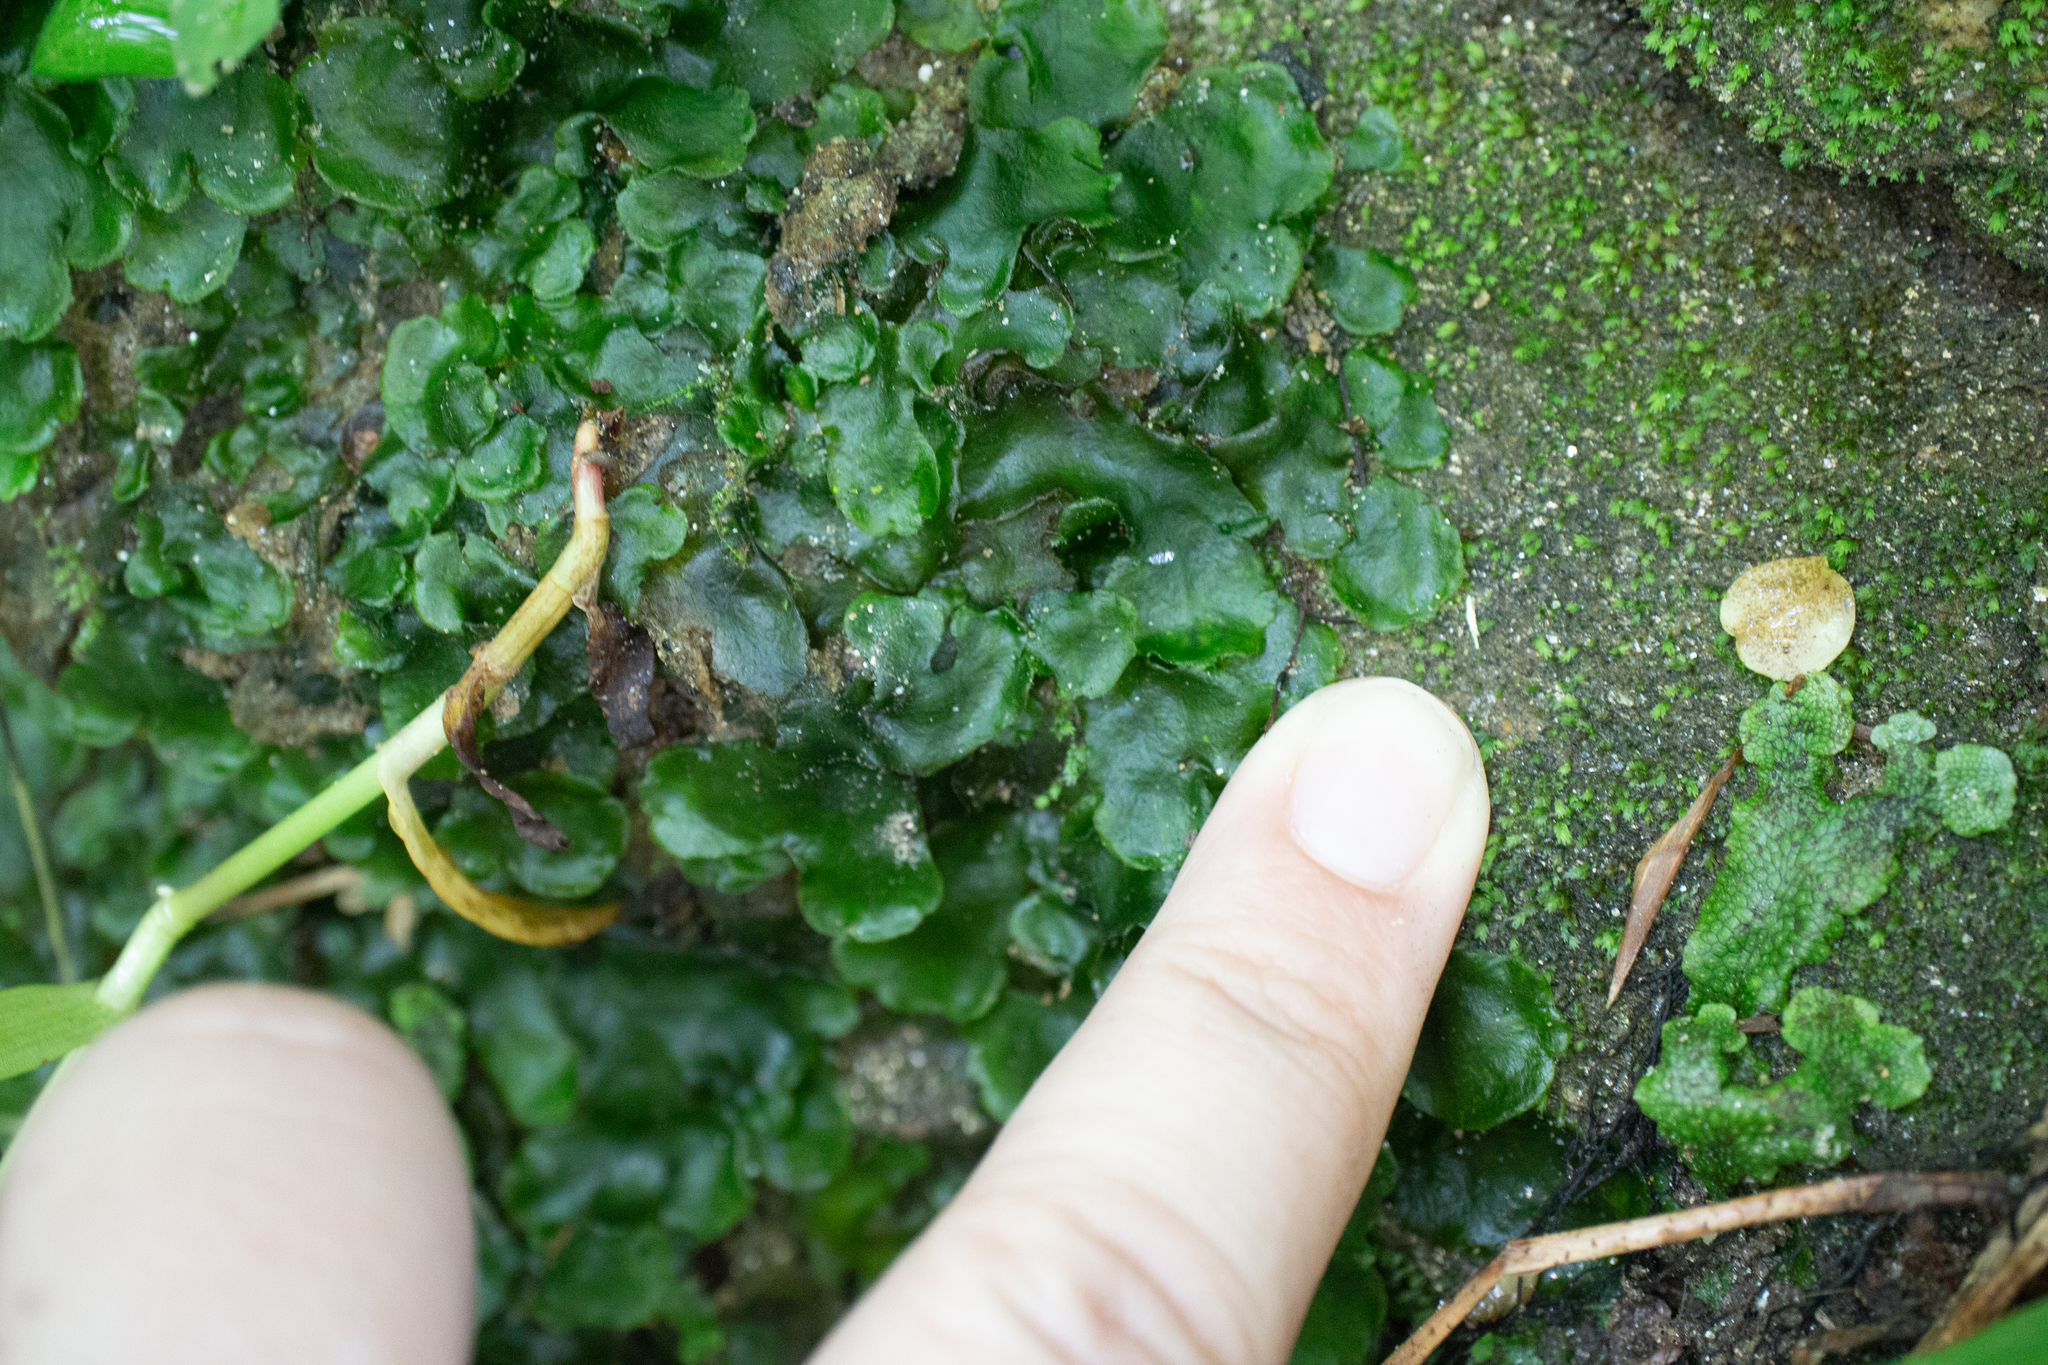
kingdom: Plantae
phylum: Marchantiophyta
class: Marchantiopsida
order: Marchantiales
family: Dumortieraceae
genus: Dumortiera
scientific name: Dumortiera hirsuta
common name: Dumortier's liverwort
